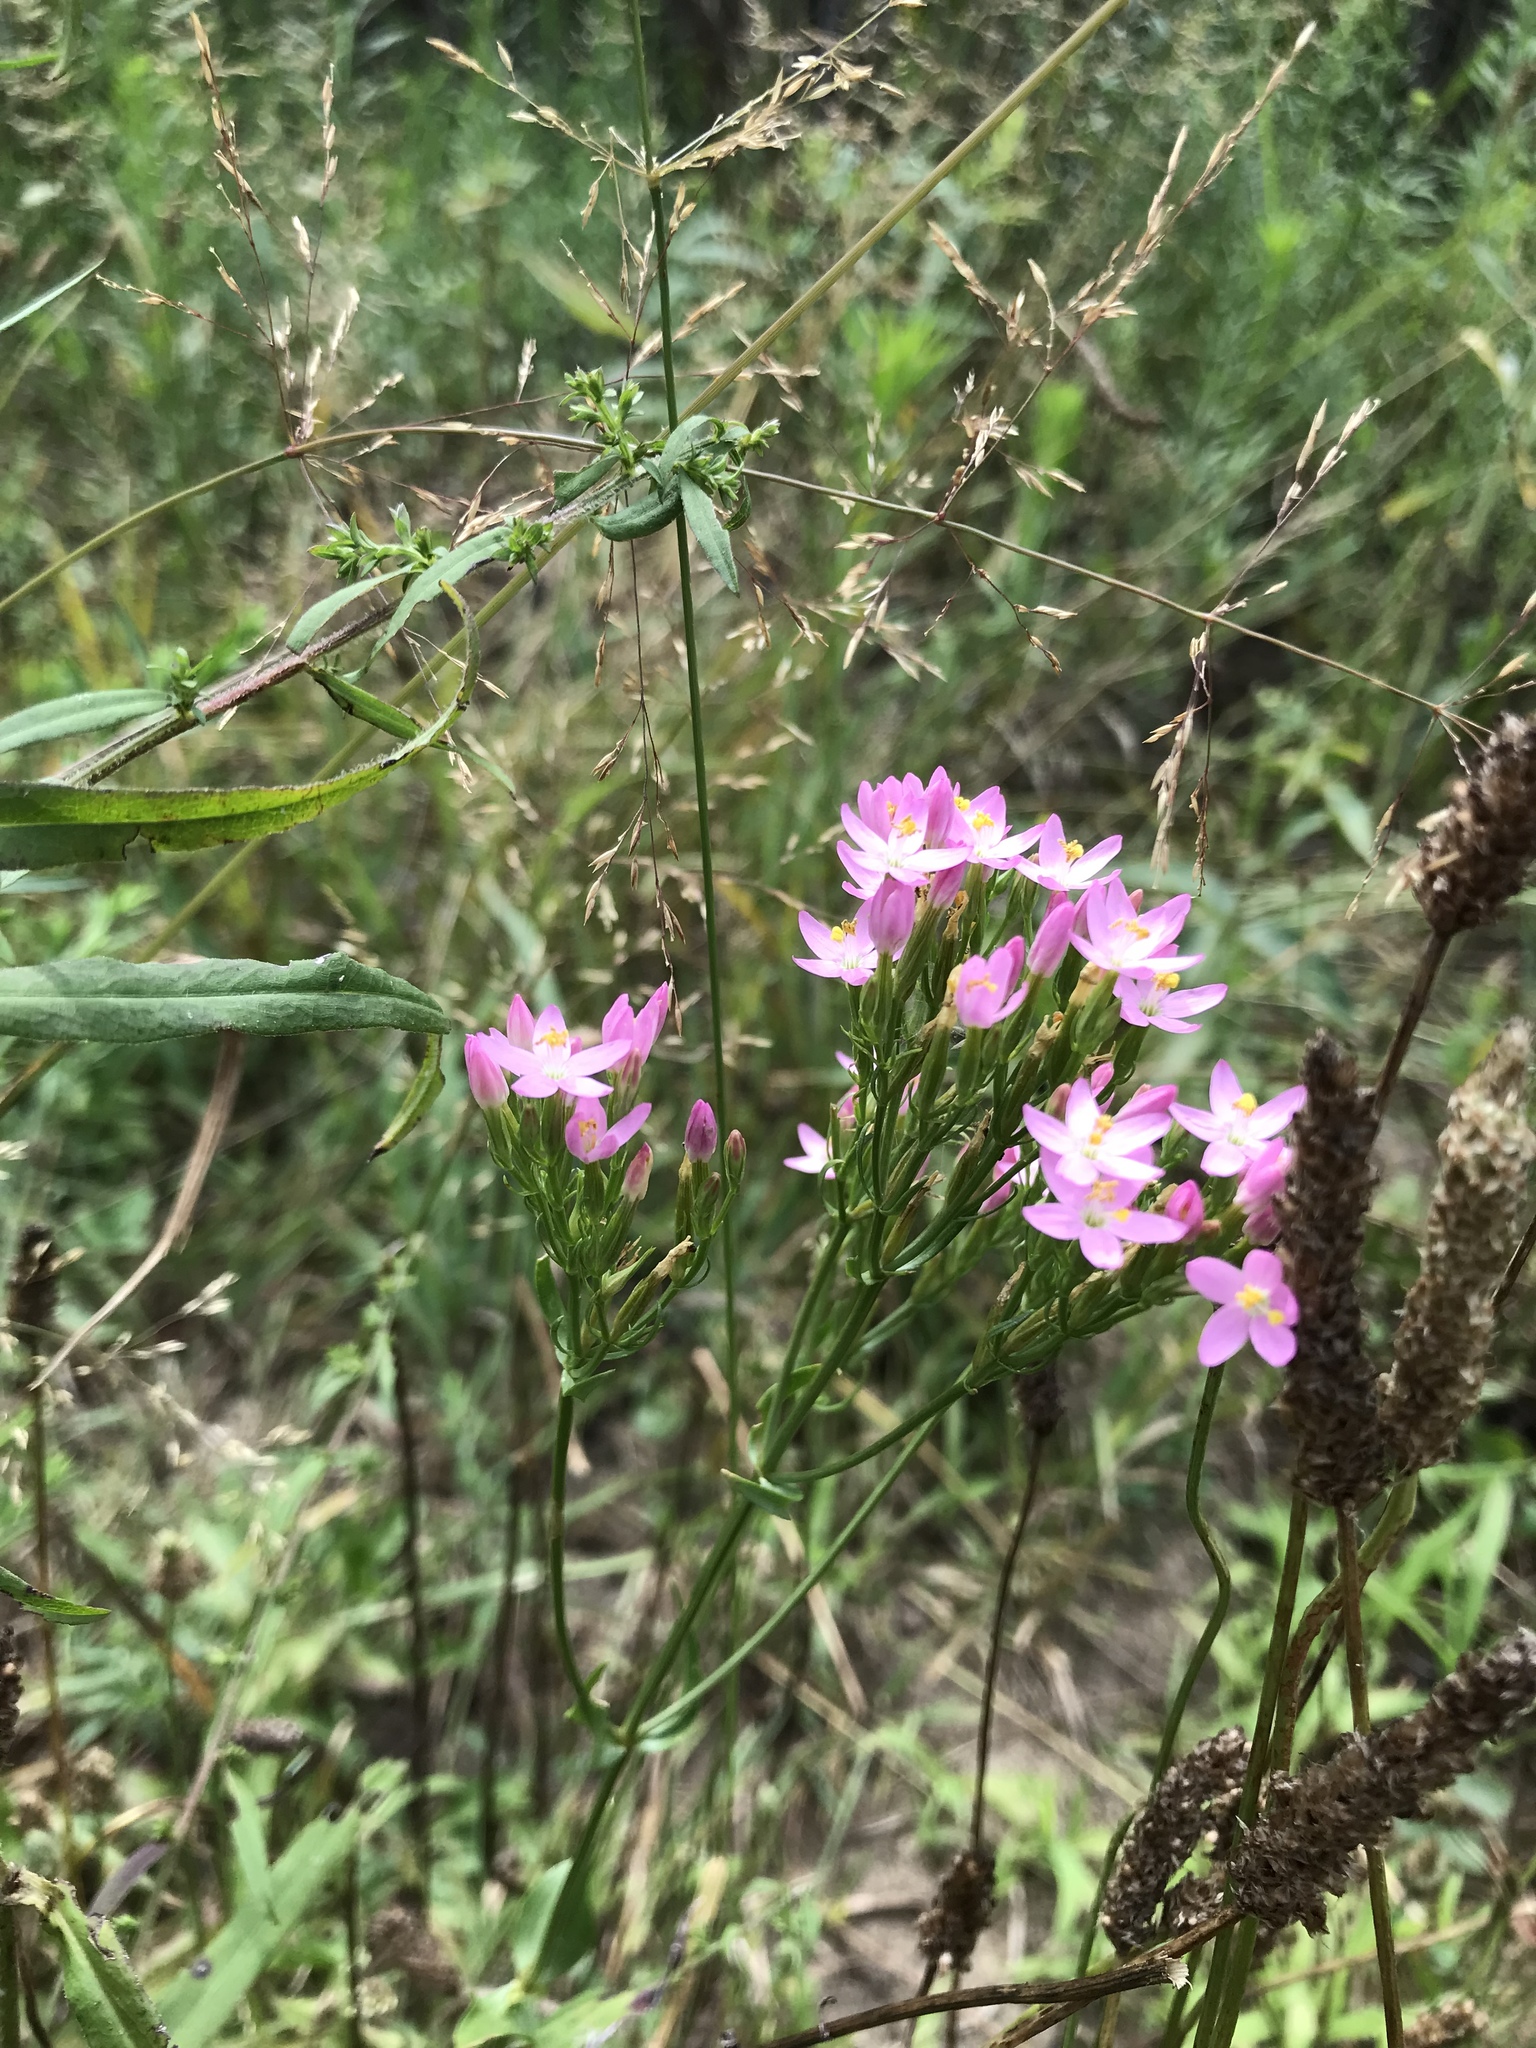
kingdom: Plantae
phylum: Tracheophyta
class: Magnoliopsida
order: Gentianales
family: Gentianaceae
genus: Centaurium
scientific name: Centaurium erythraea
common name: Common centaury
